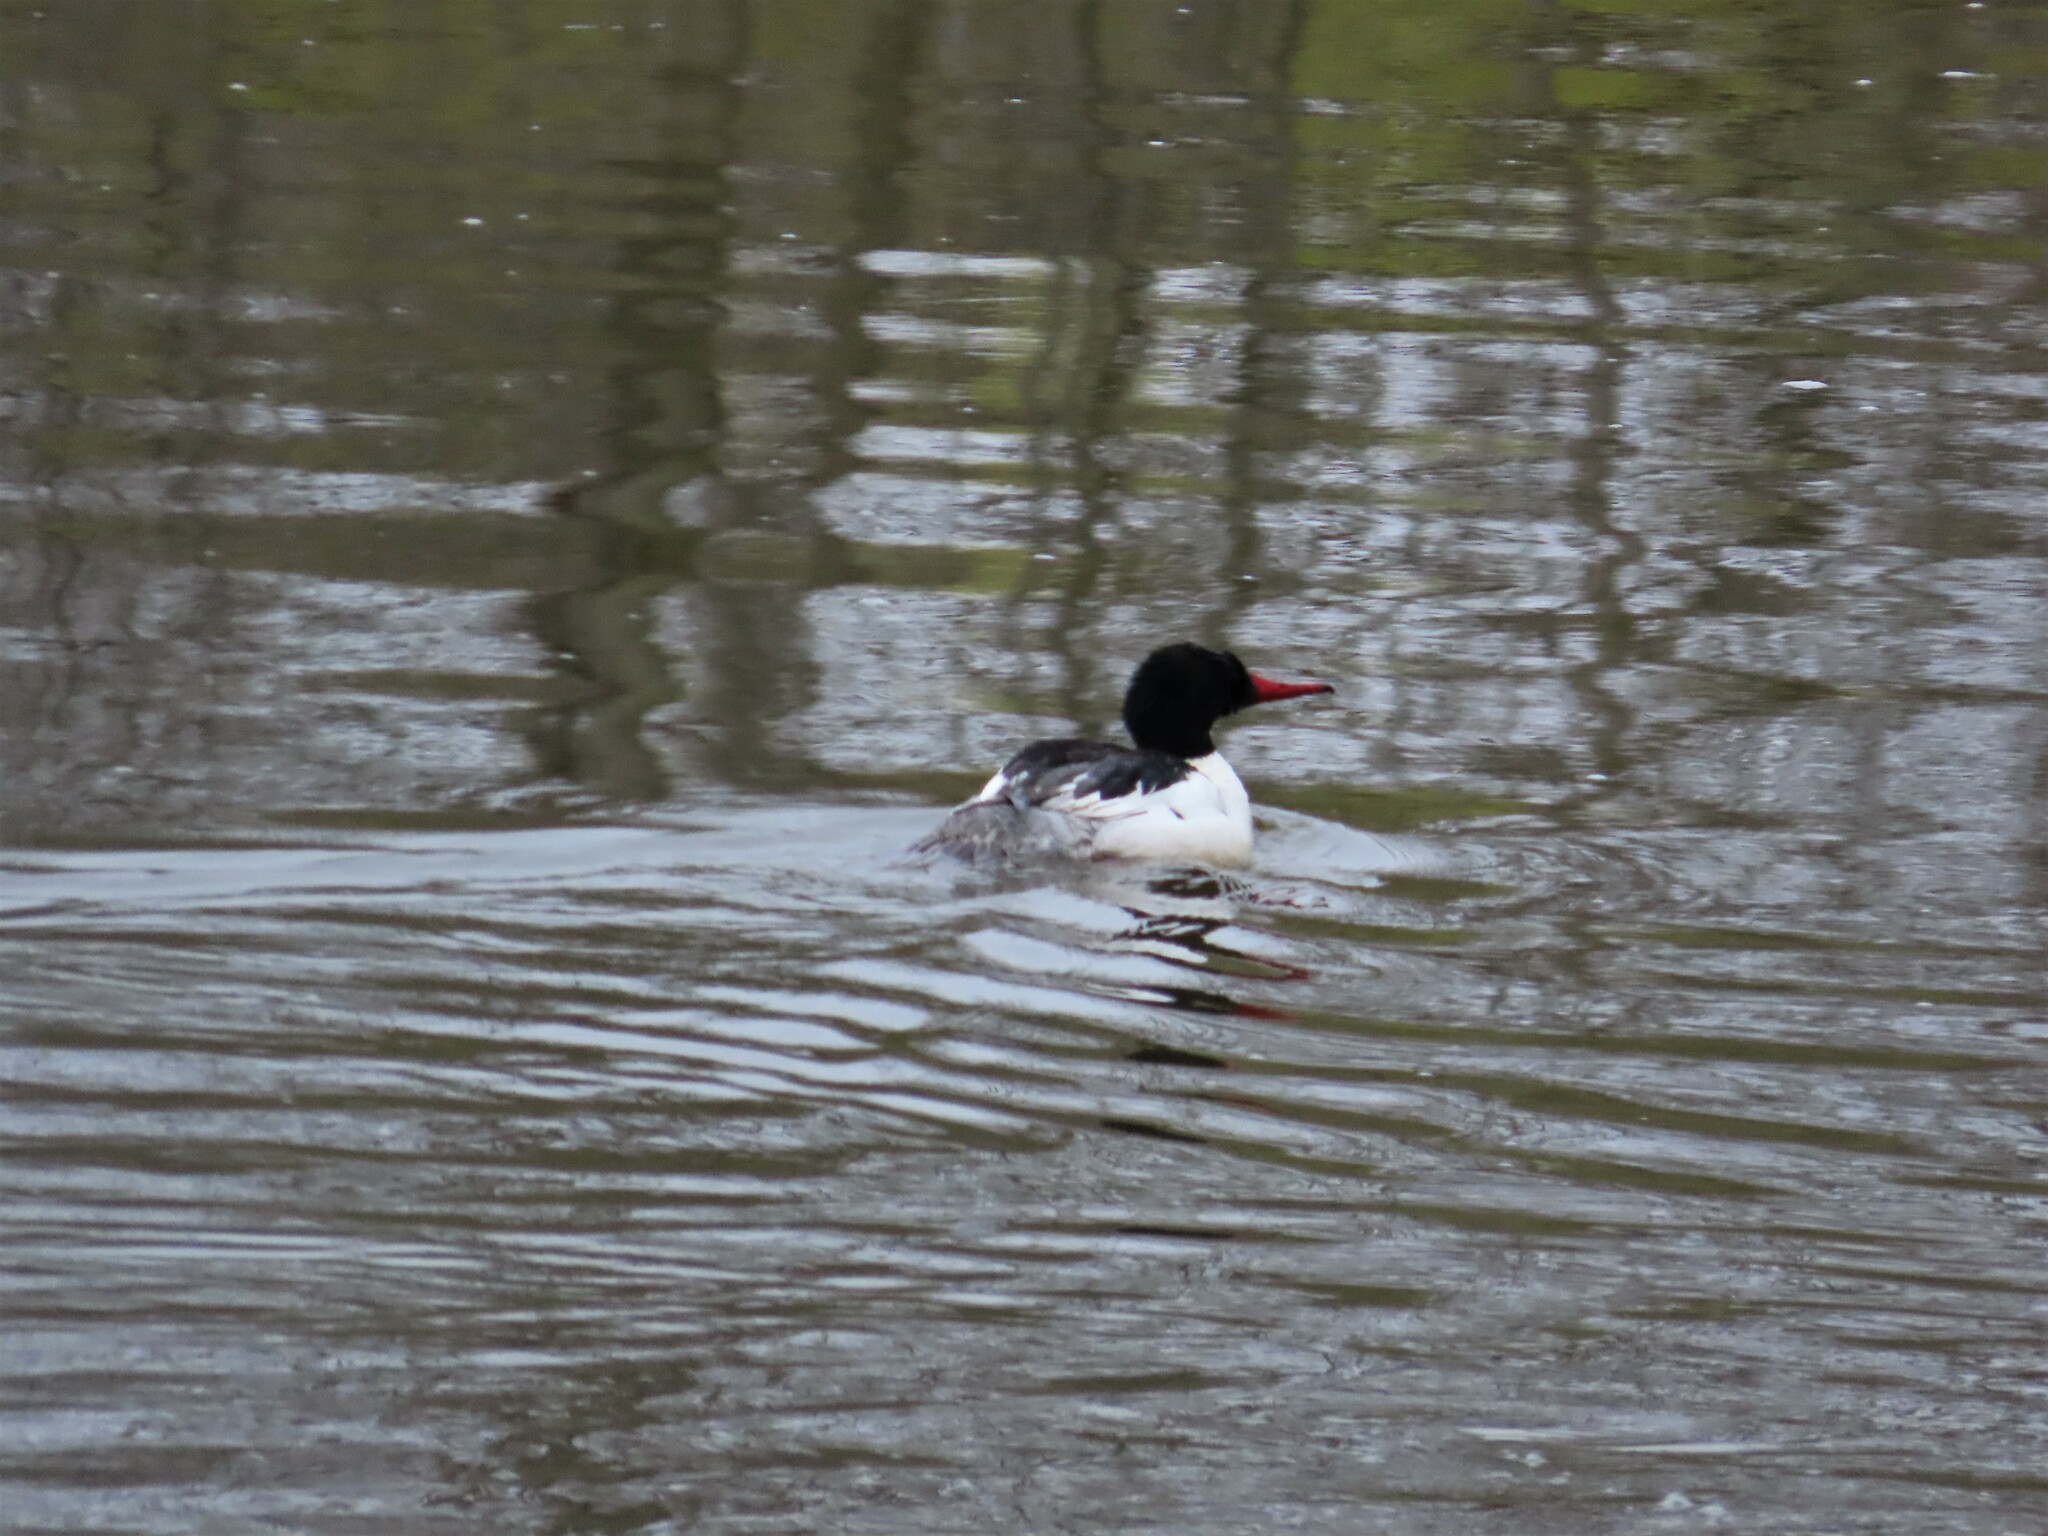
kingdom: Animalia
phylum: Chordata
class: Aves
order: Anseriformes
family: Anatidae
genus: Mergus
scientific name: Mergus merganser
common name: Common merganser
